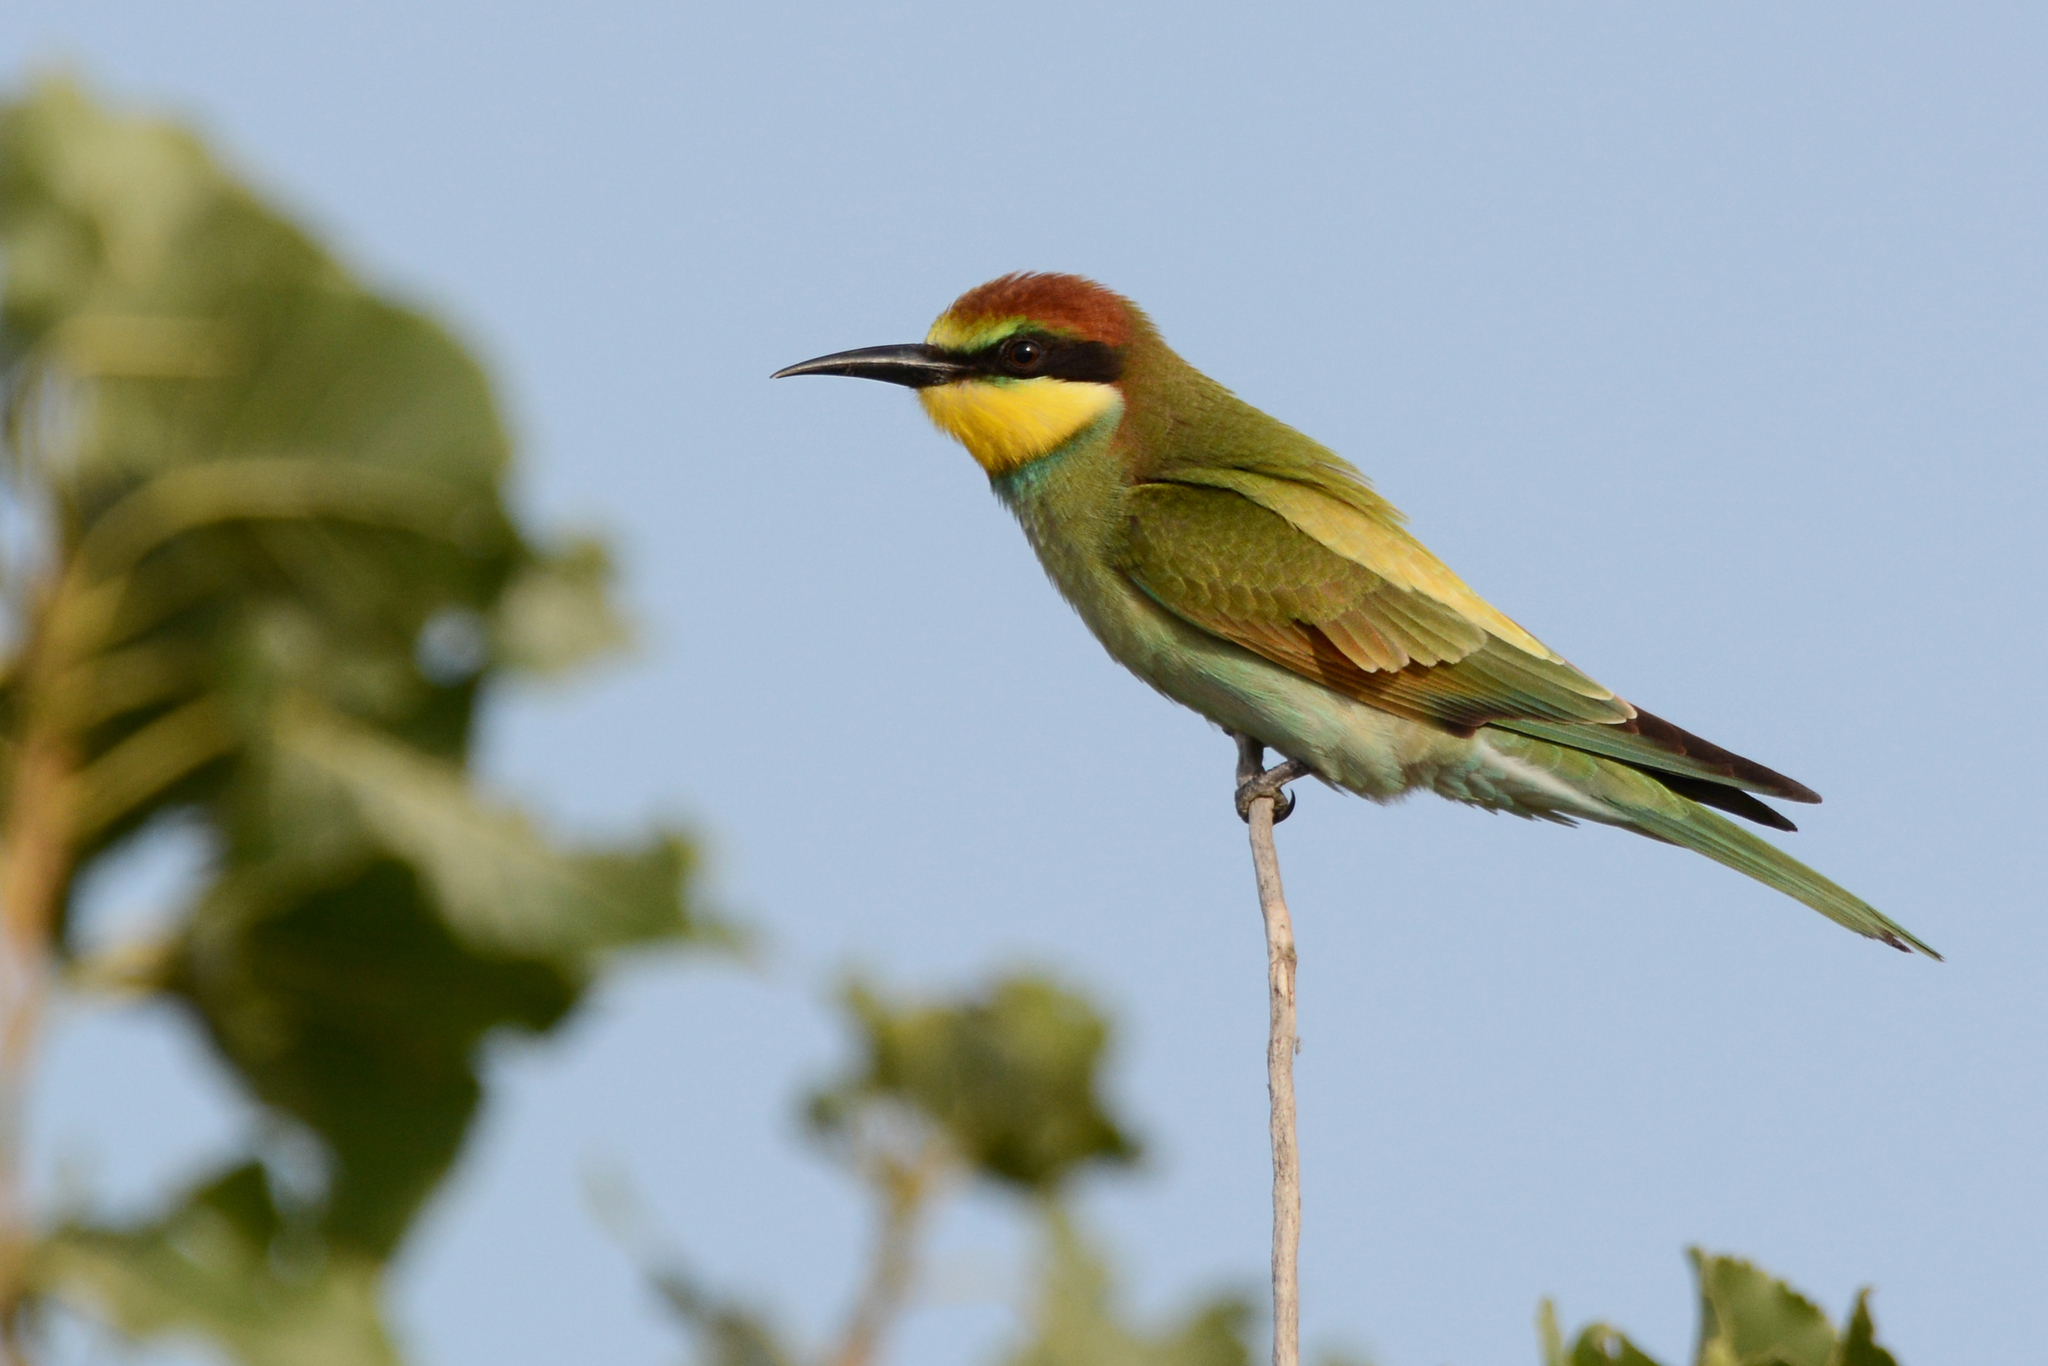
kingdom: Animalia
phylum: Chordata
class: Aves
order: Coraciiformes
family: Meropidae
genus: Merops
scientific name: Merops apiaster
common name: European bee-eater
